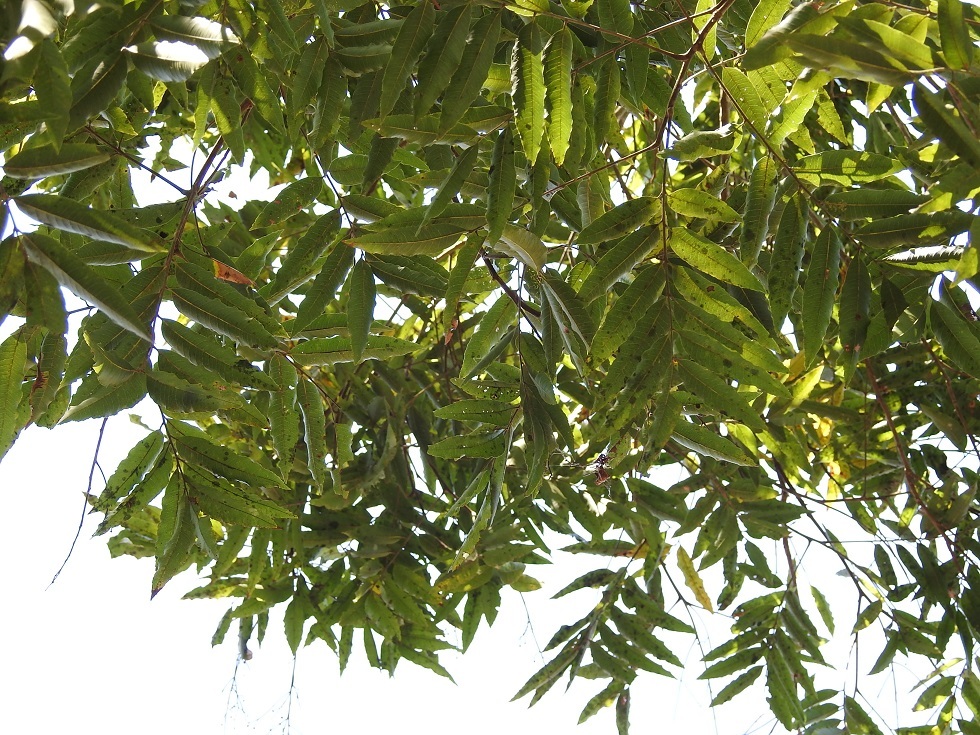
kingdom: Plantae
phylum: Tracheophyta
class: Magnoliopsida
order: Oxalidales
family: Brunelliaceae
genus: Brunellia
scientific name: Brunellia mexicana
